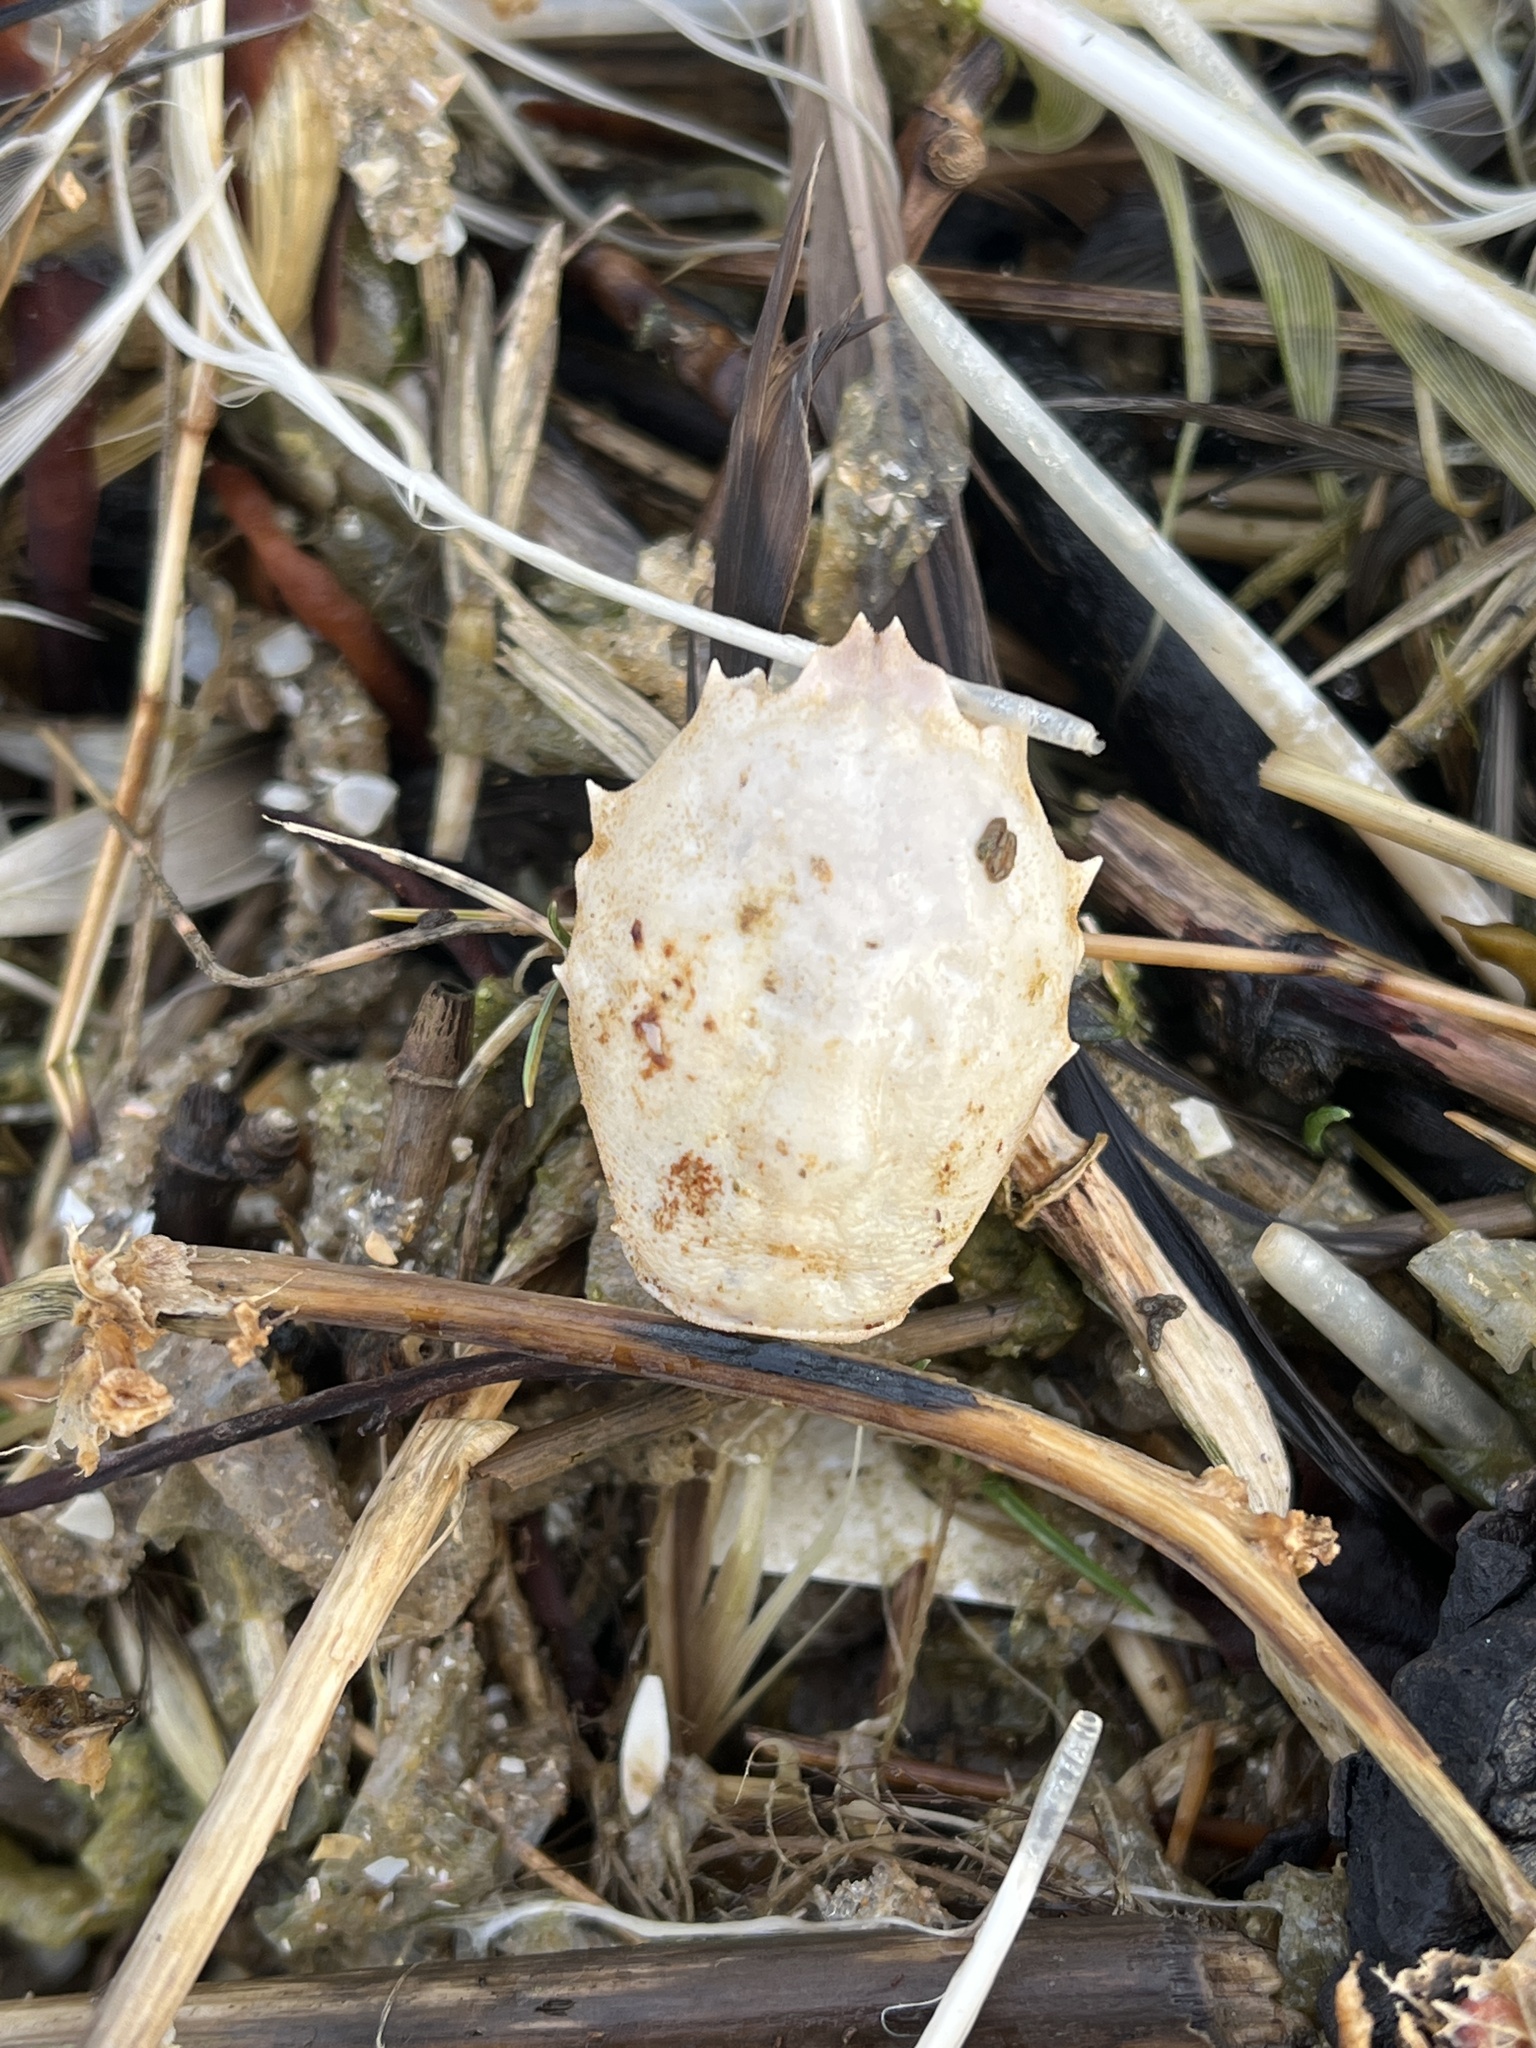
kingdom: Animalia
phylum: Arthropoda
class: Malacostraca
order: Decapoda
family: Corystidae
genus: Corystes
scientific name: Corystes cassivelaunus
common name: Masked crab
